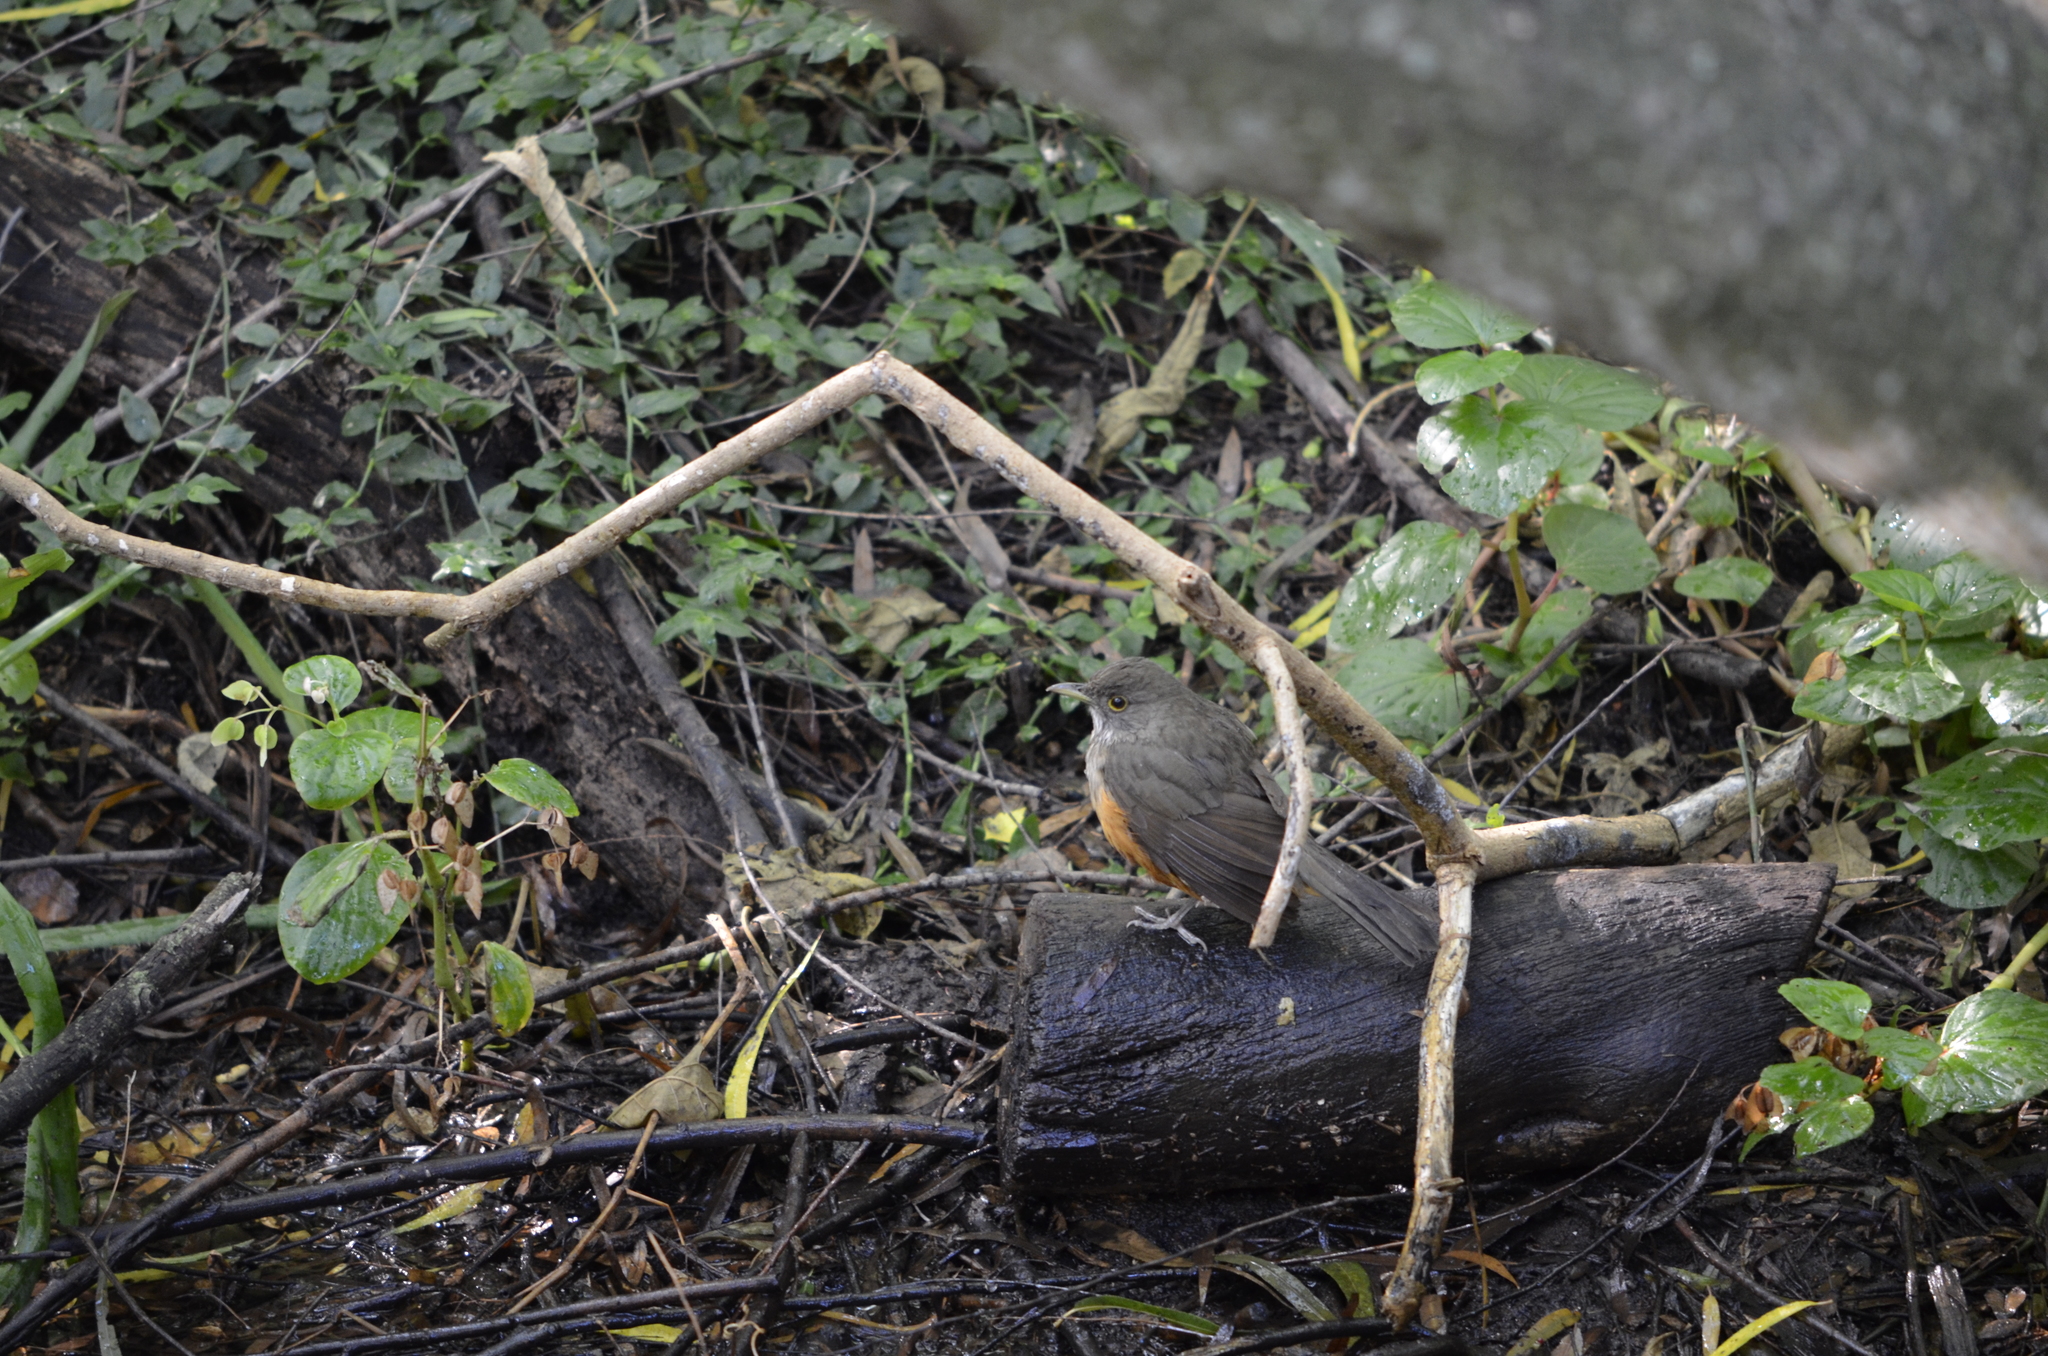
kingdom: Animalia
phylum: Chordata
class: Aves
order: Passeriformes
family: Turdidae
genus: Turdus
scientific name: Turdus rufiventris
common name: Rufous-bellied thrush
